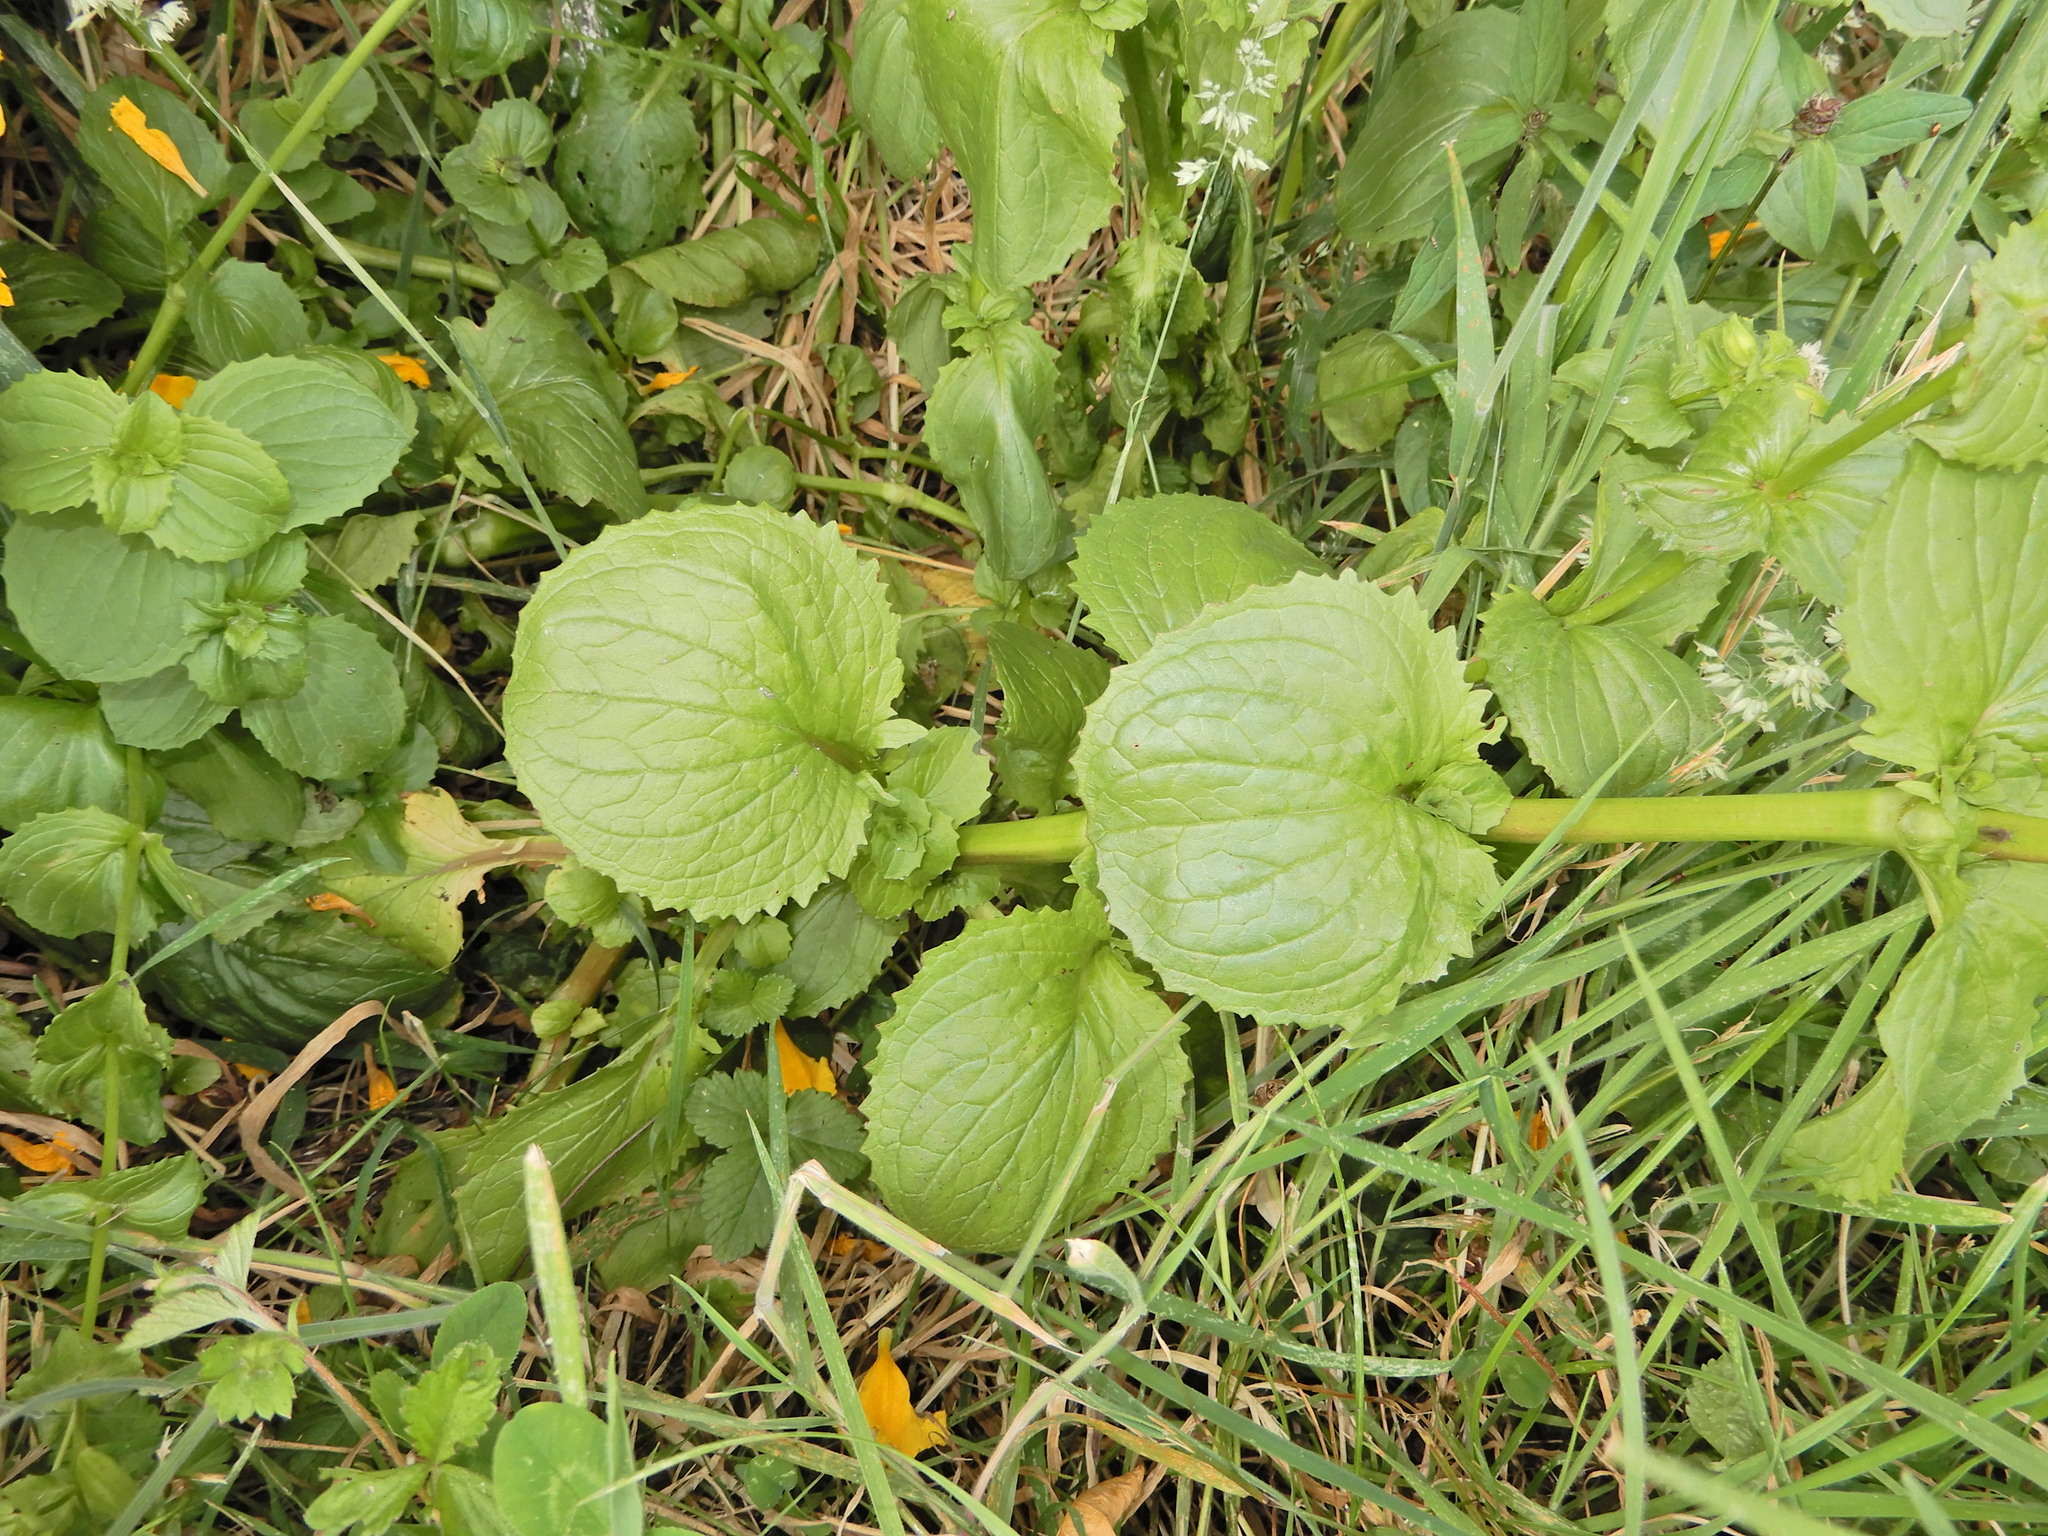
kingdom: Plantae
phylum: Tracheophyta
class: Magnoliopsida
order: Lamiales
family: Phrymaceae
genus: Erythranthe
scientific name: Erythranthe guttata
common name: Monkeyflower
